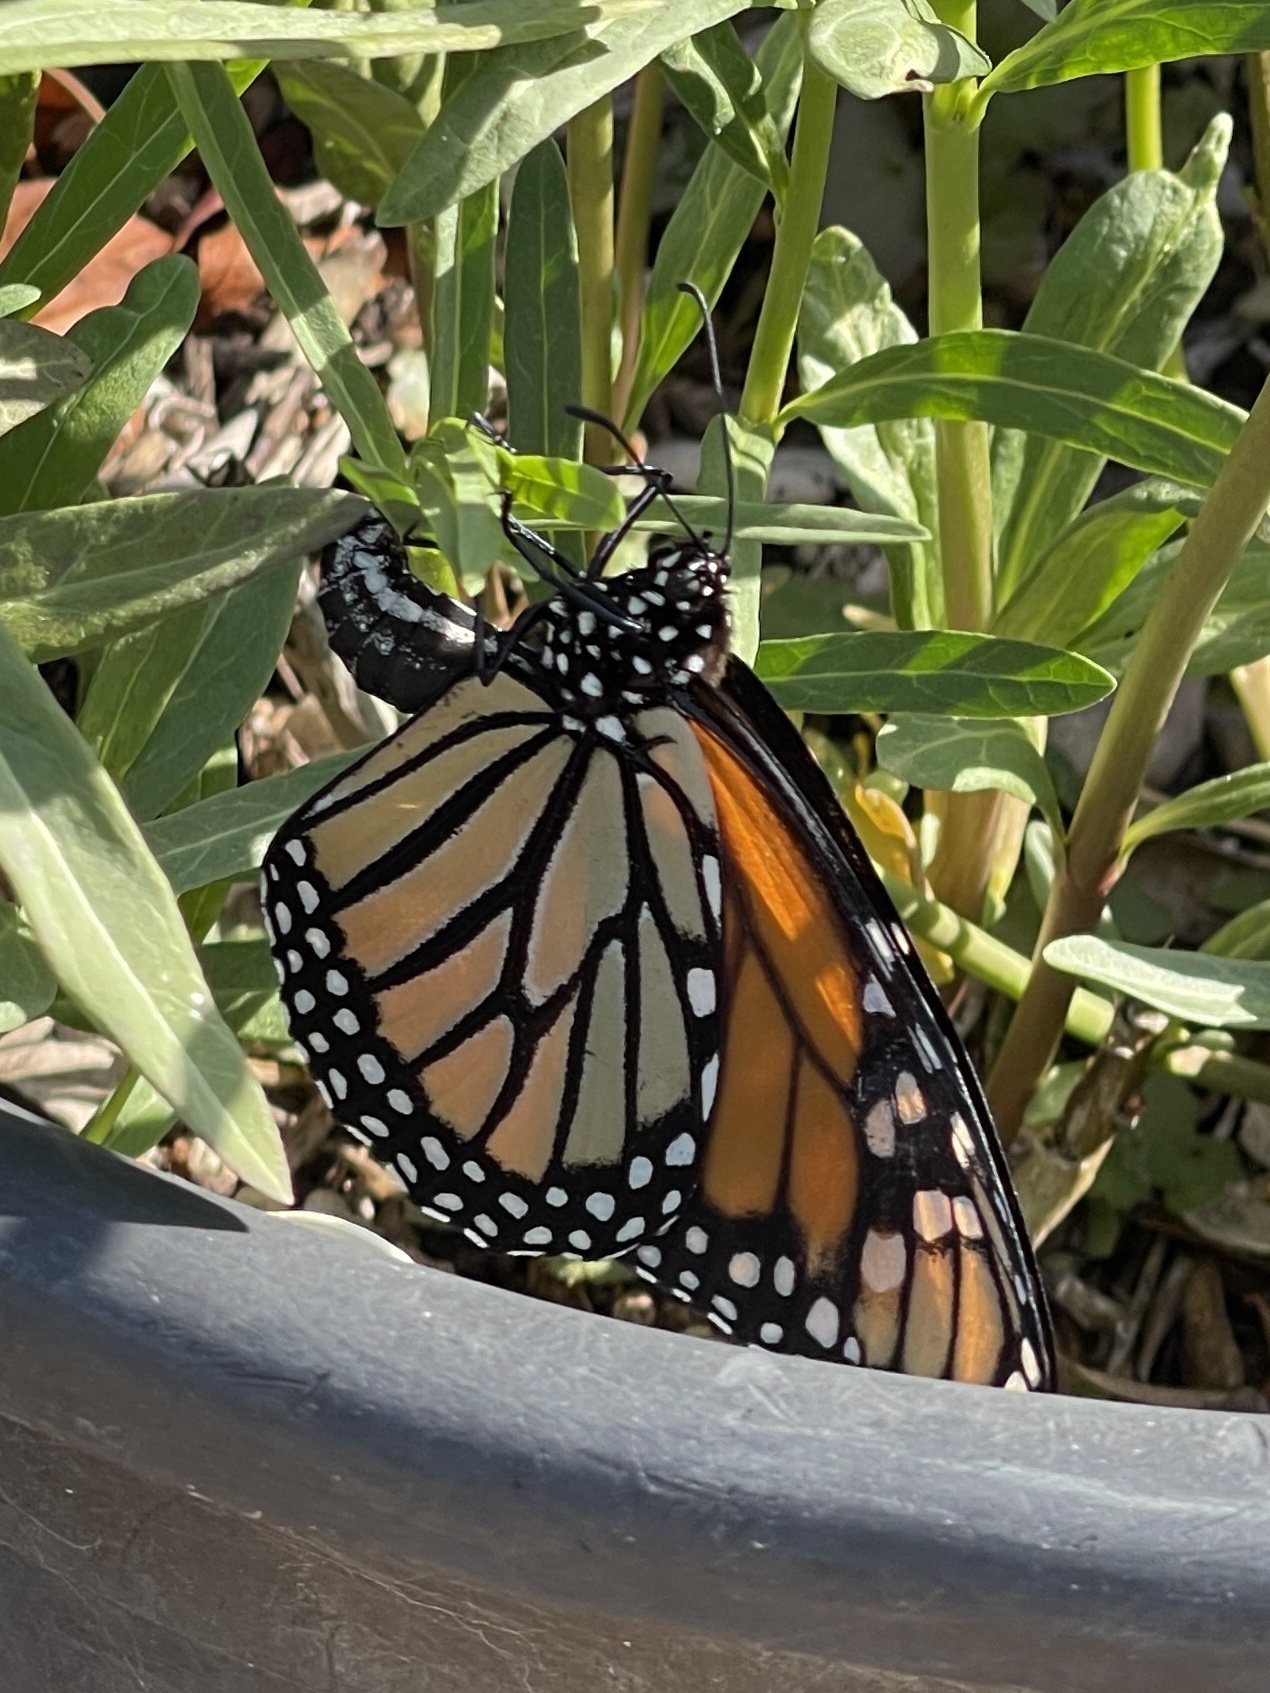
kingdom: Animalia
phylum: Arthropoda
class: Insecta
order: Lepidoptera
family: Nymphalidae
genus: Danaus
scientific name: Danaus plexippus
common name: Monarch
